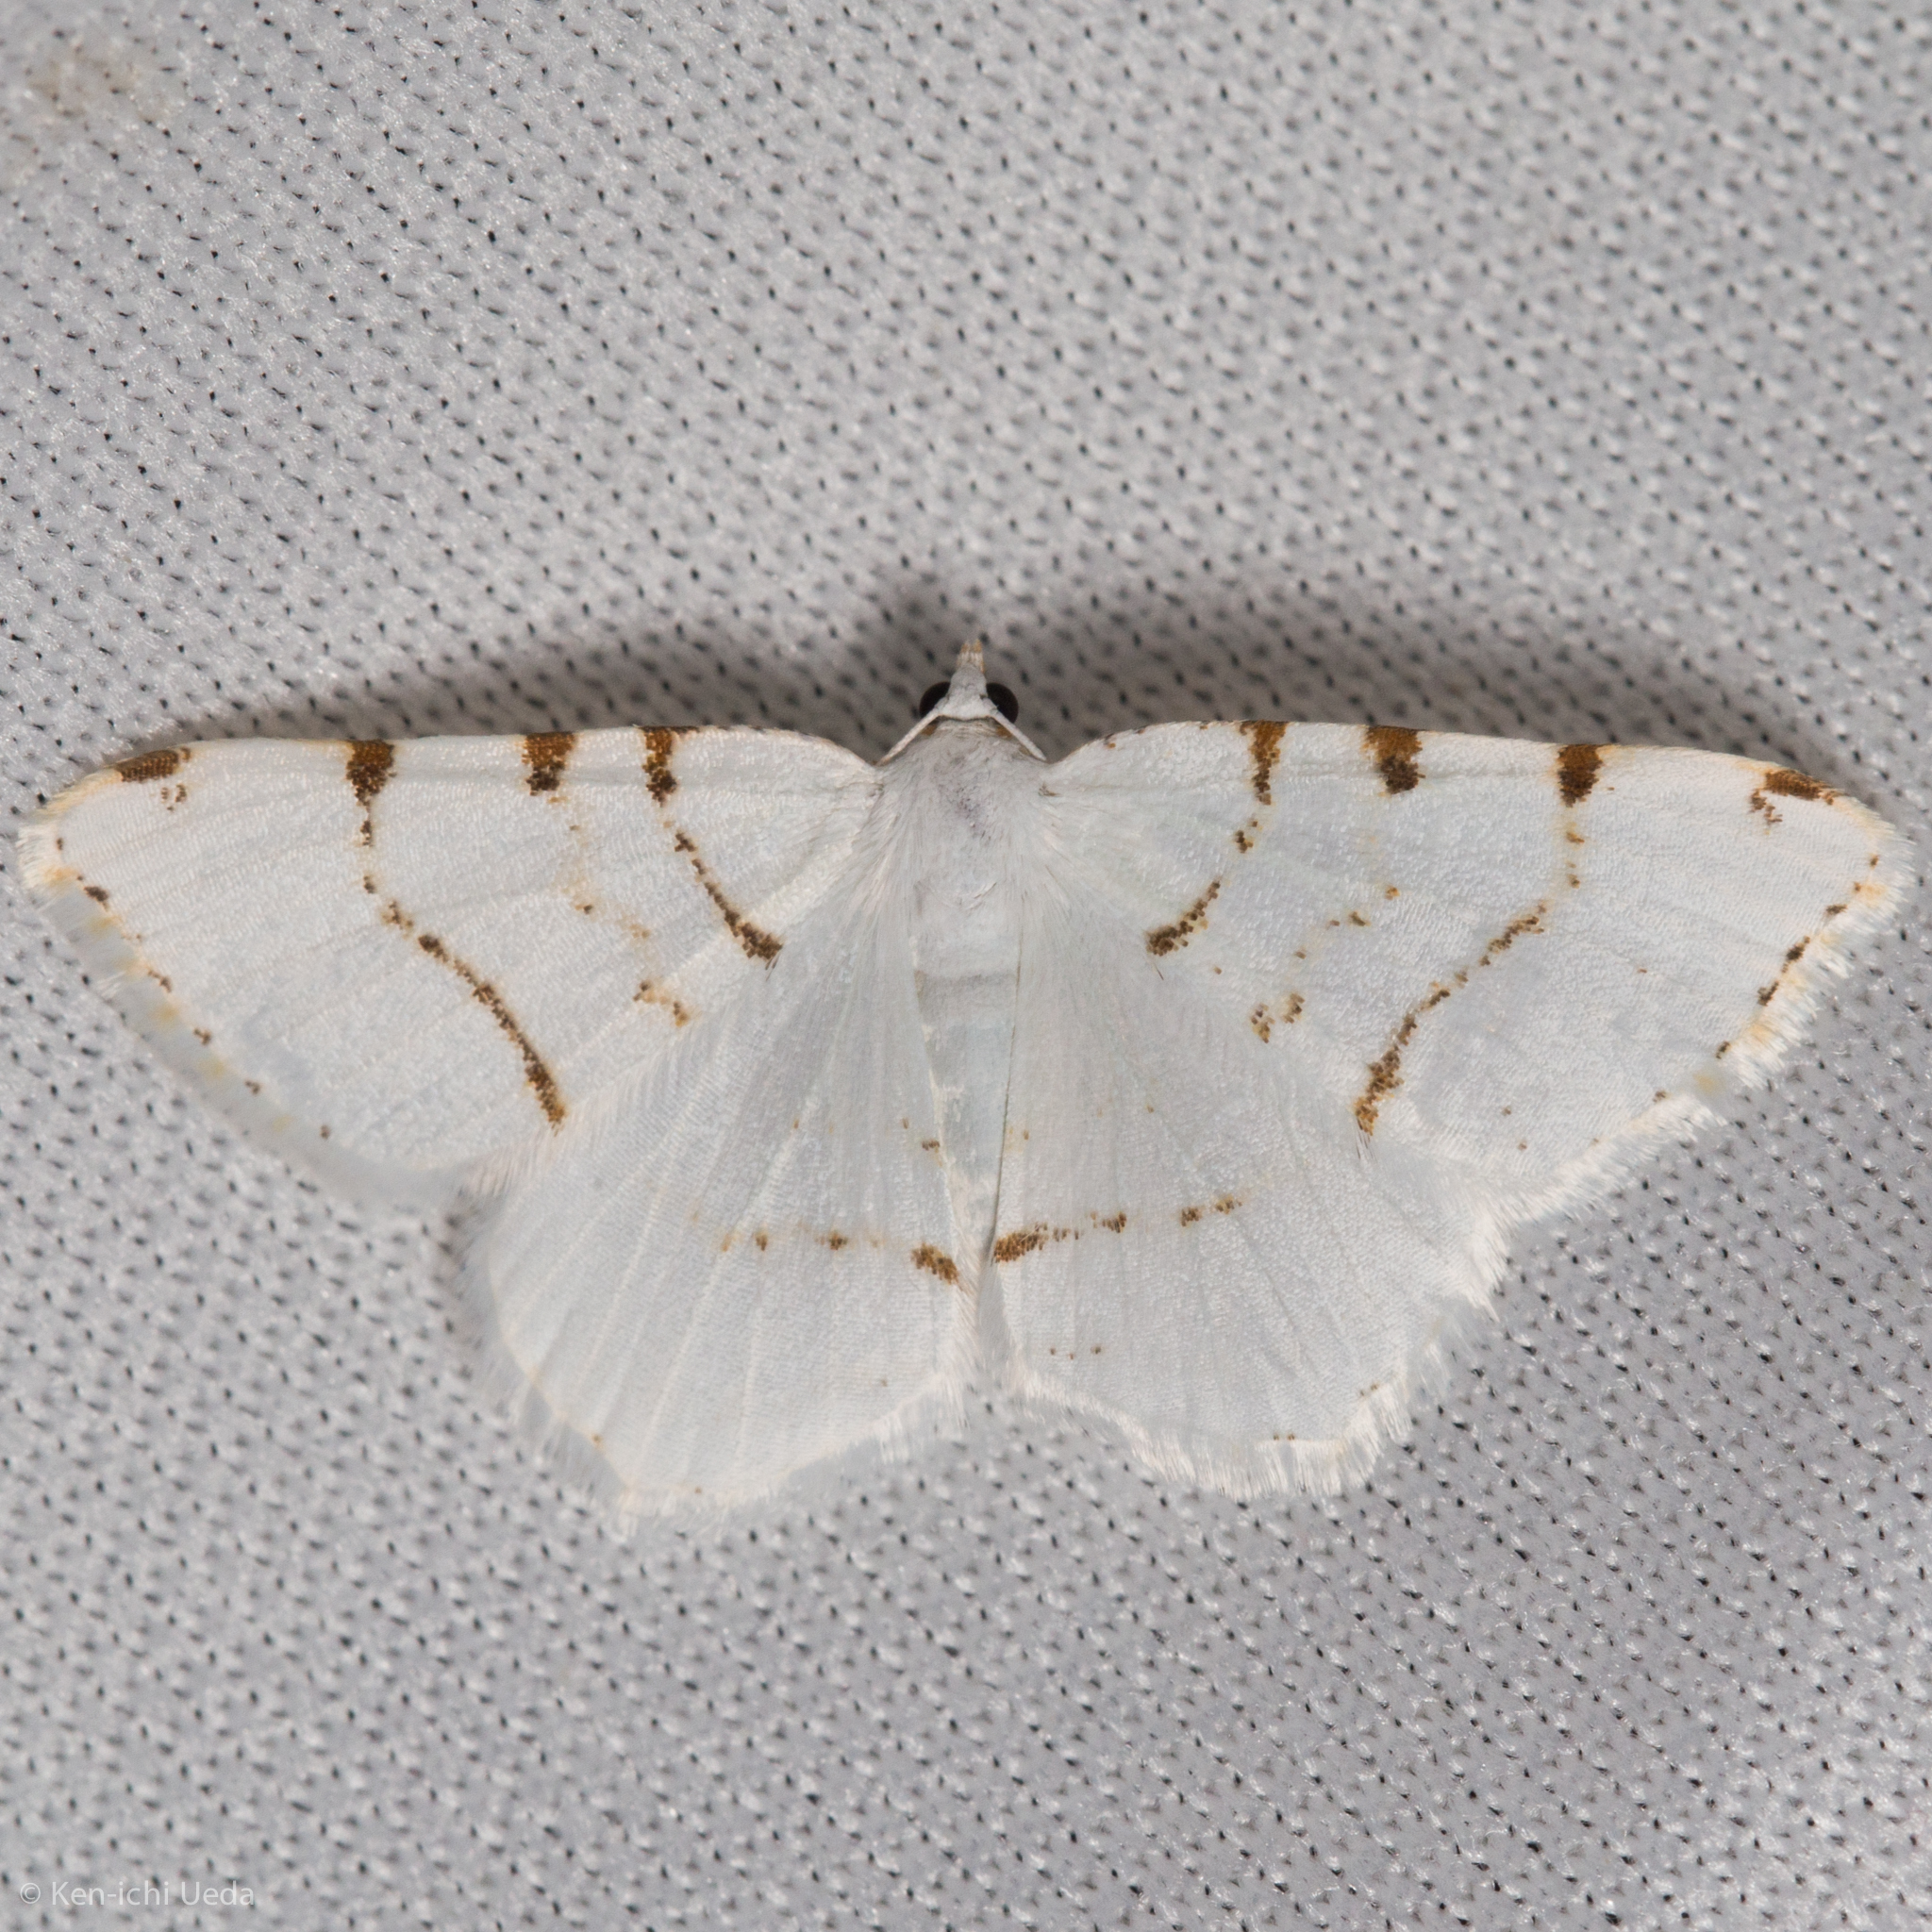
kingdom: Animalia
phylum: Arthropoda
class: Insecta
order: Lepidoptera
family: Geometridae
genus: Macaria
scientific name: Macaria pustularia
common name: Lesser maple spanworm moth
